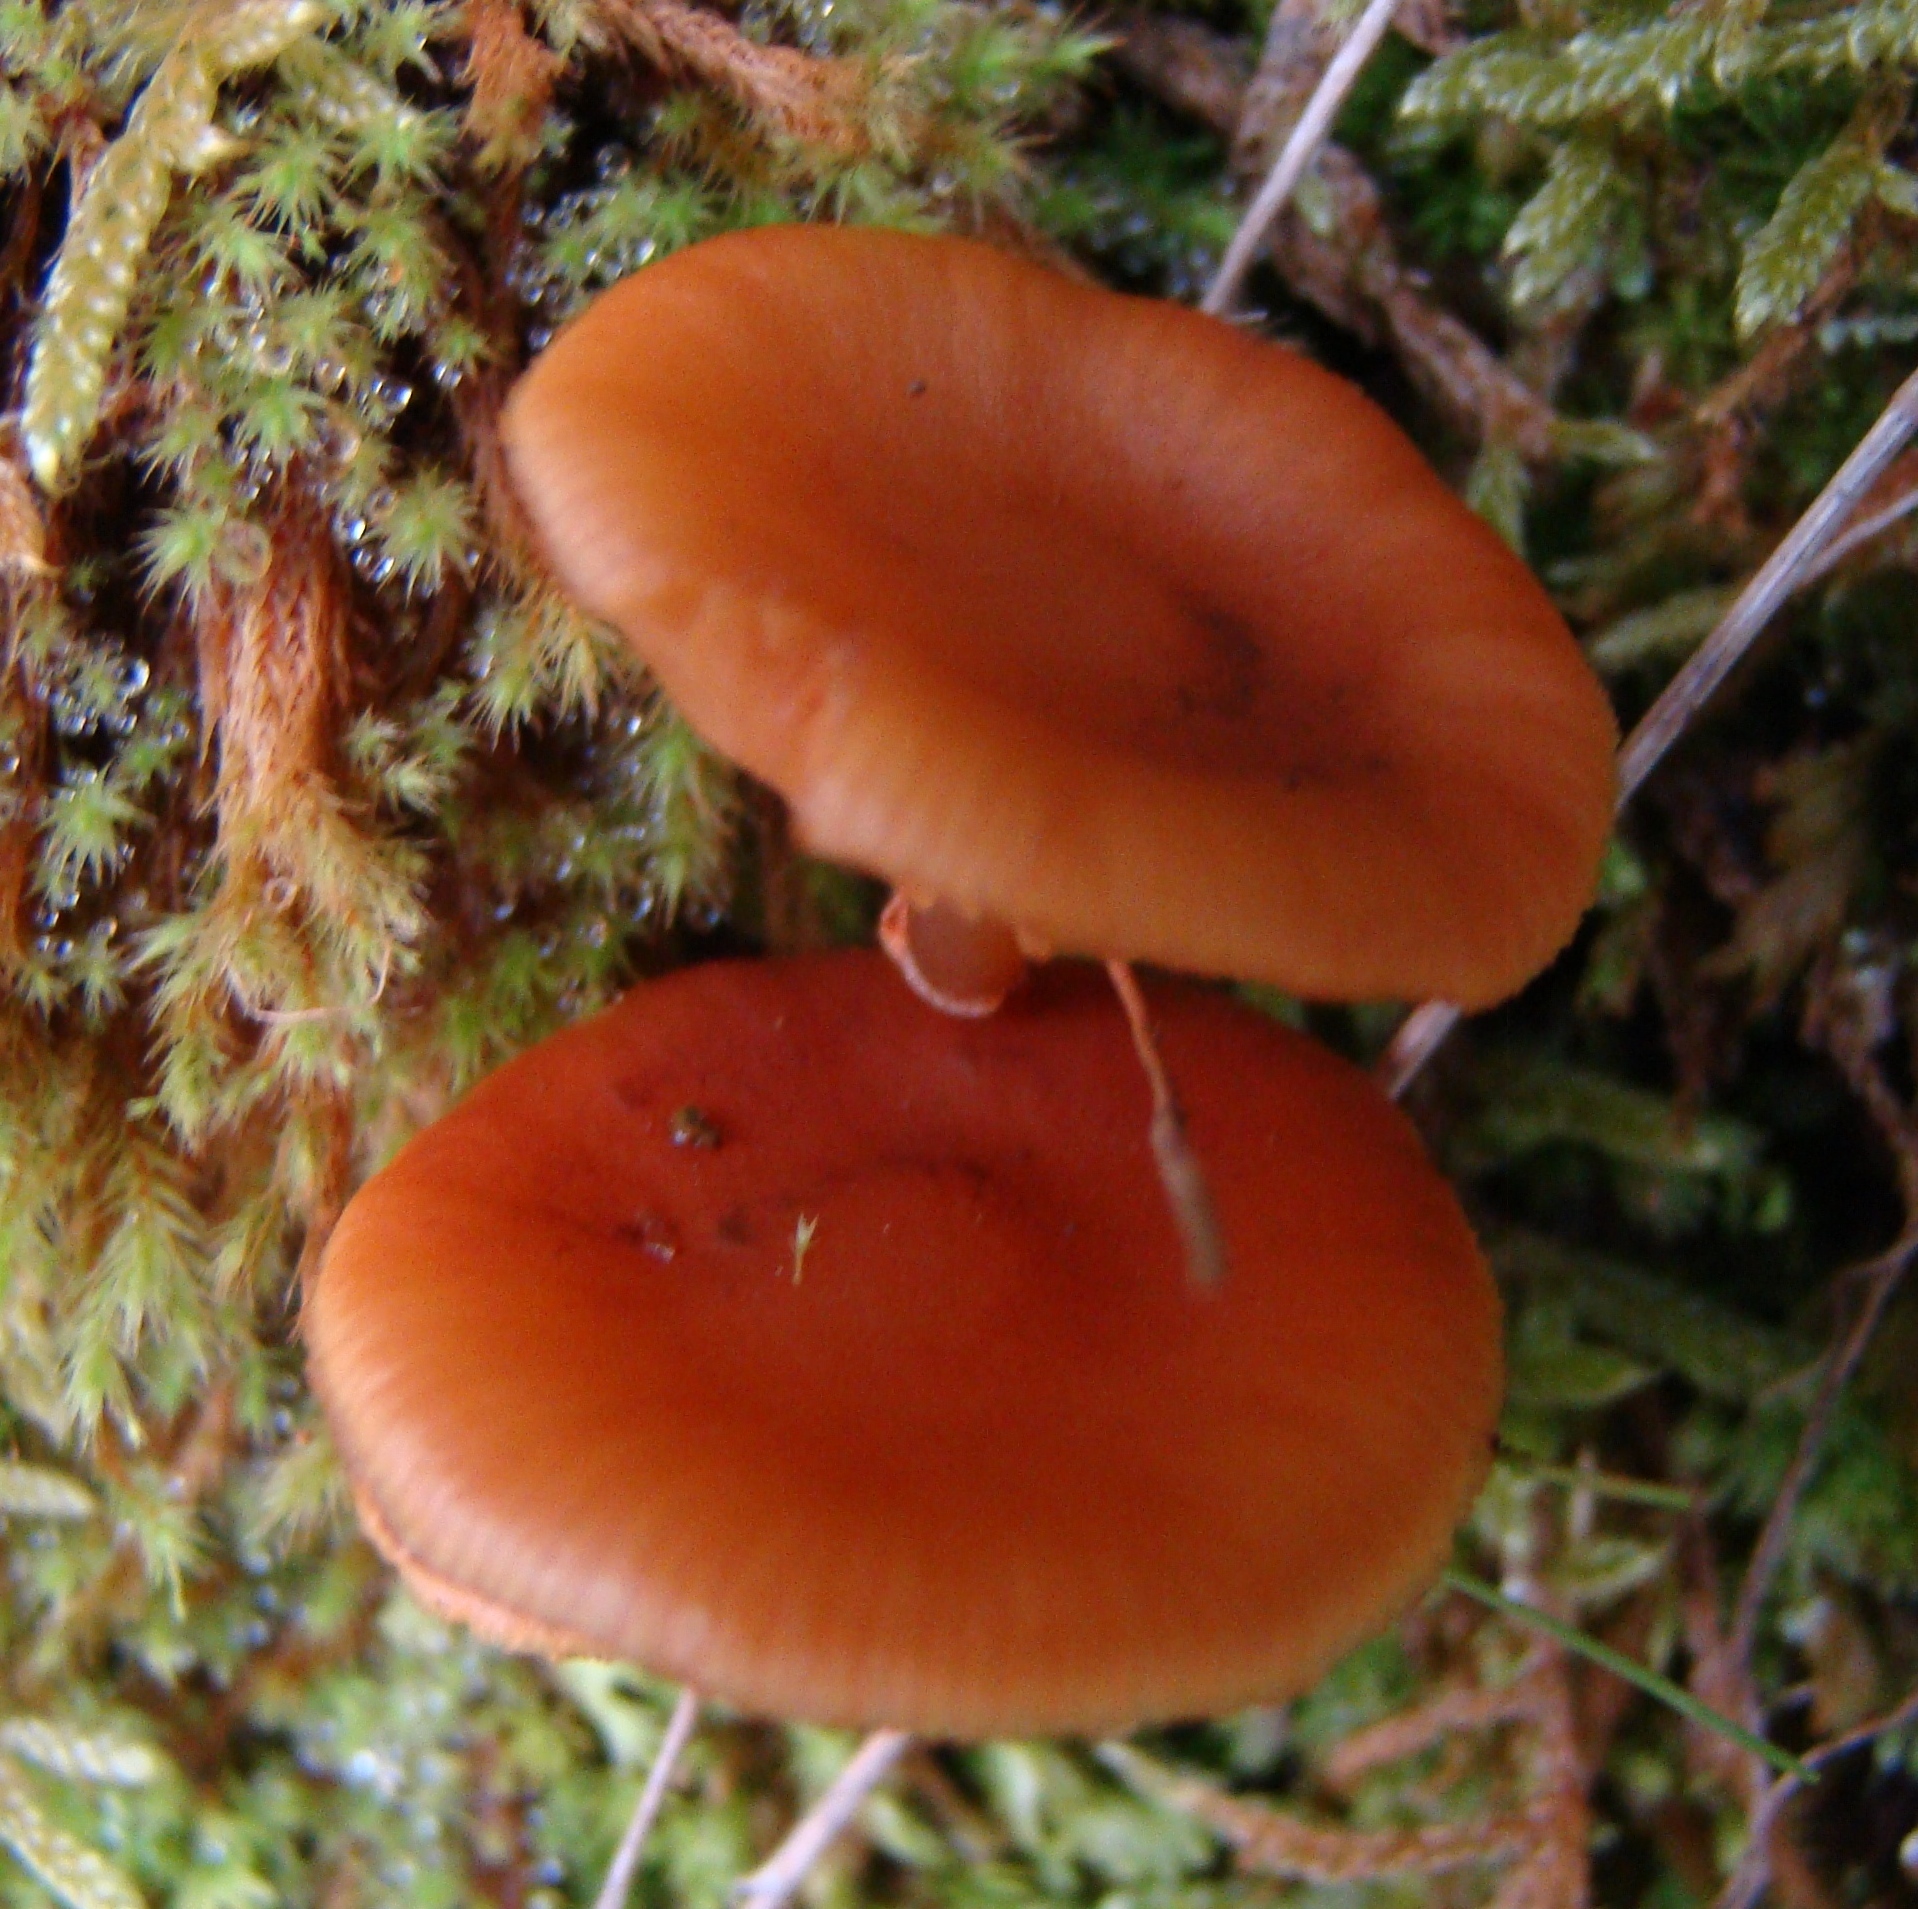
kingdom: Fungi
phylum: Basidiomycota
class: Agaricomycetes
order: Agaricales
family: Hymenogastraceae
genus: Galerina
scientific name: Galerina
